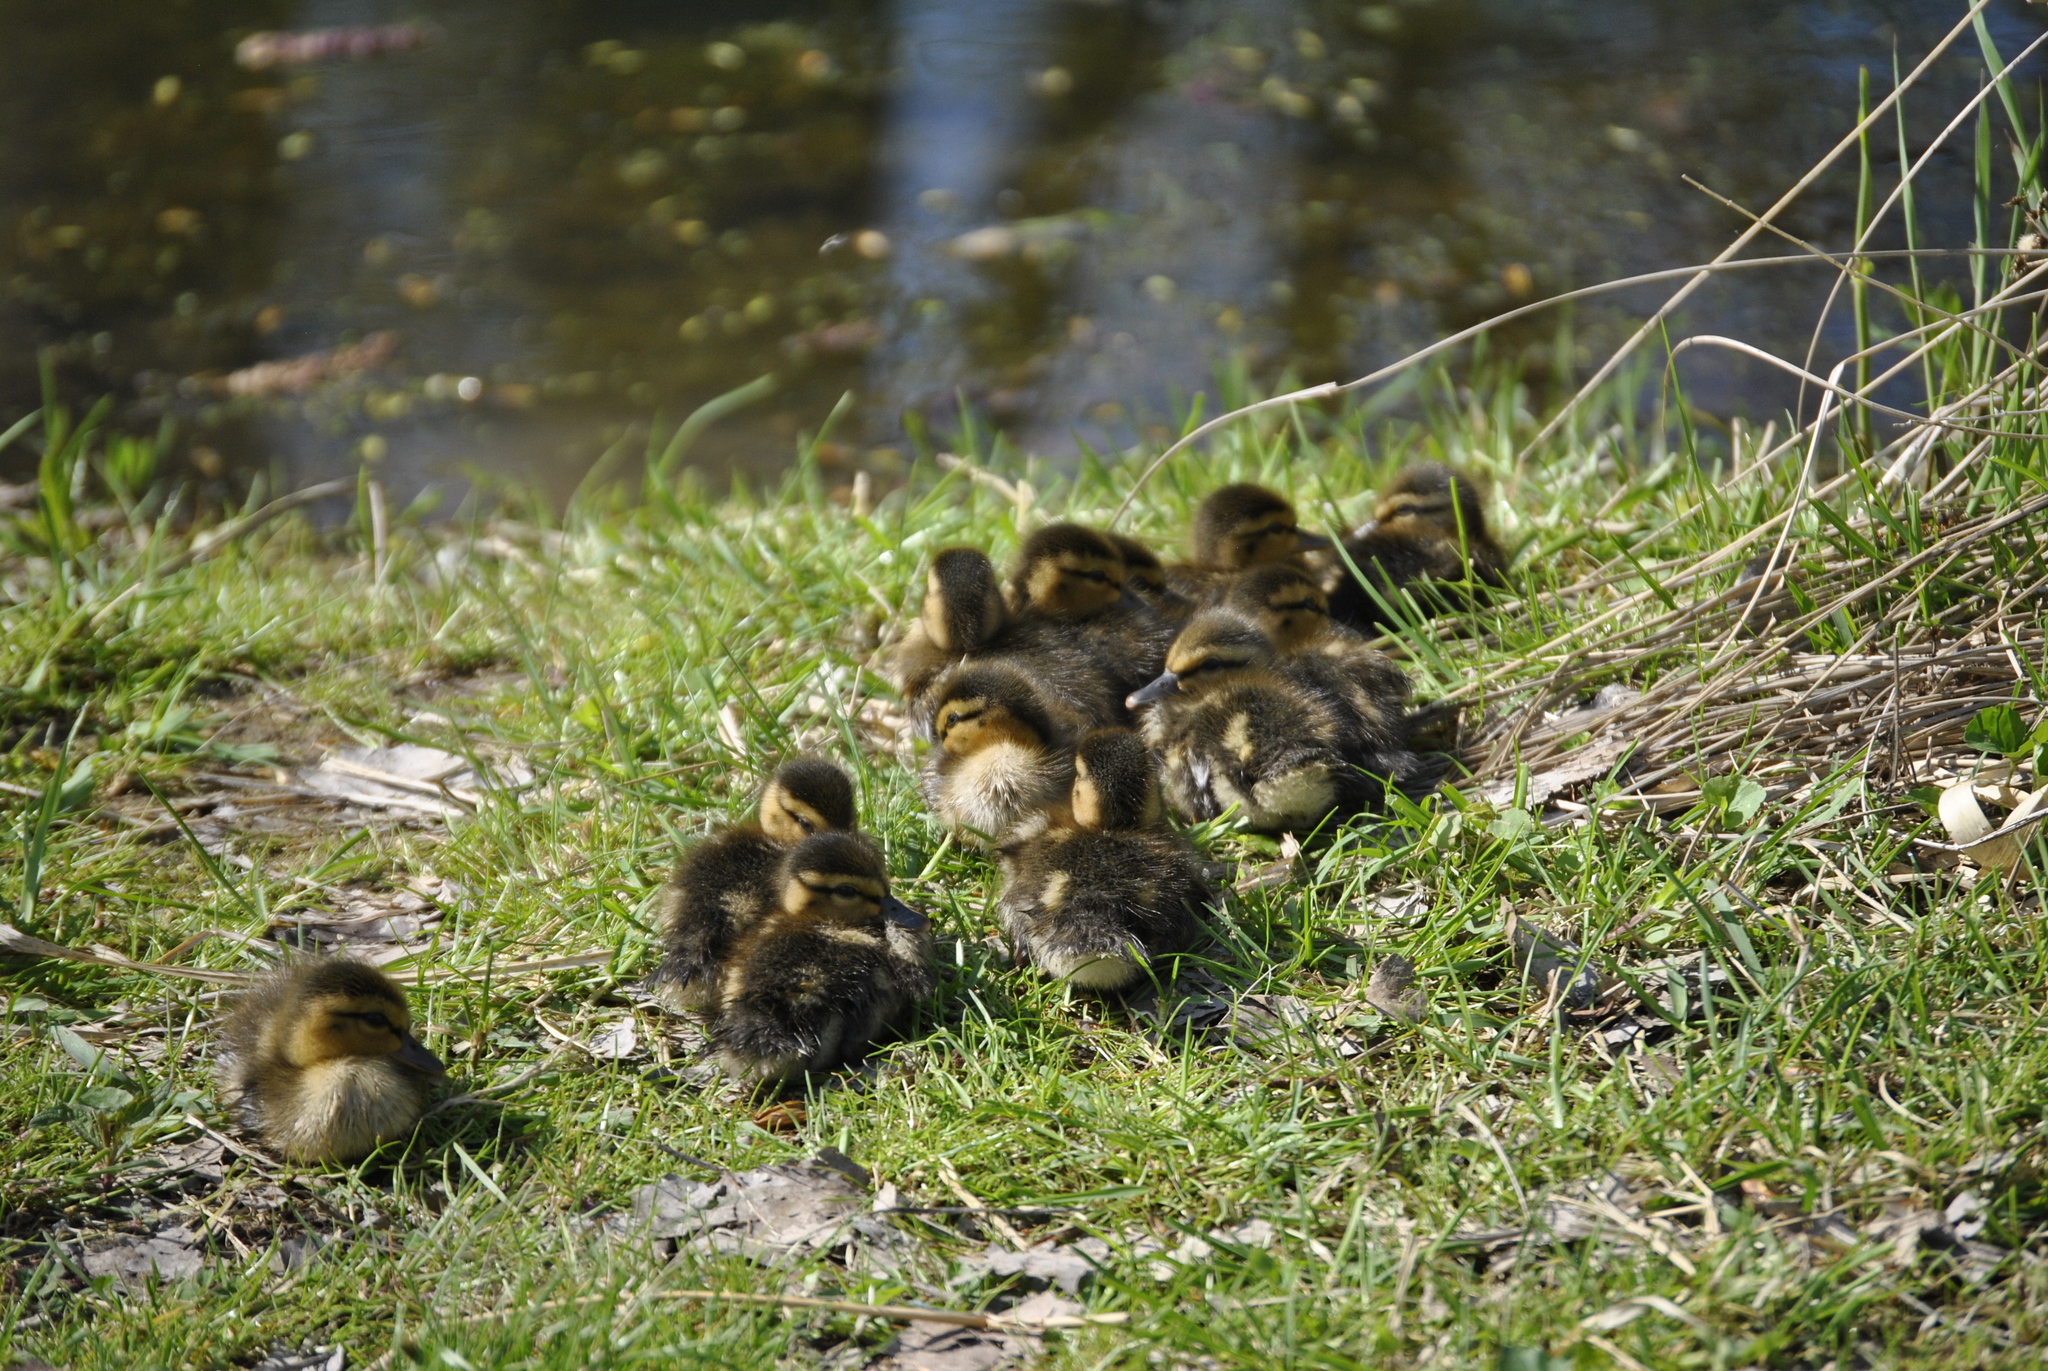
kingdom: Animalia
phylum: Chordata
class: Aves
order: Anseriformes
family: Anatidae
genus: Anas
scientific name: Anas platyrhynchos
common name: Mallard
